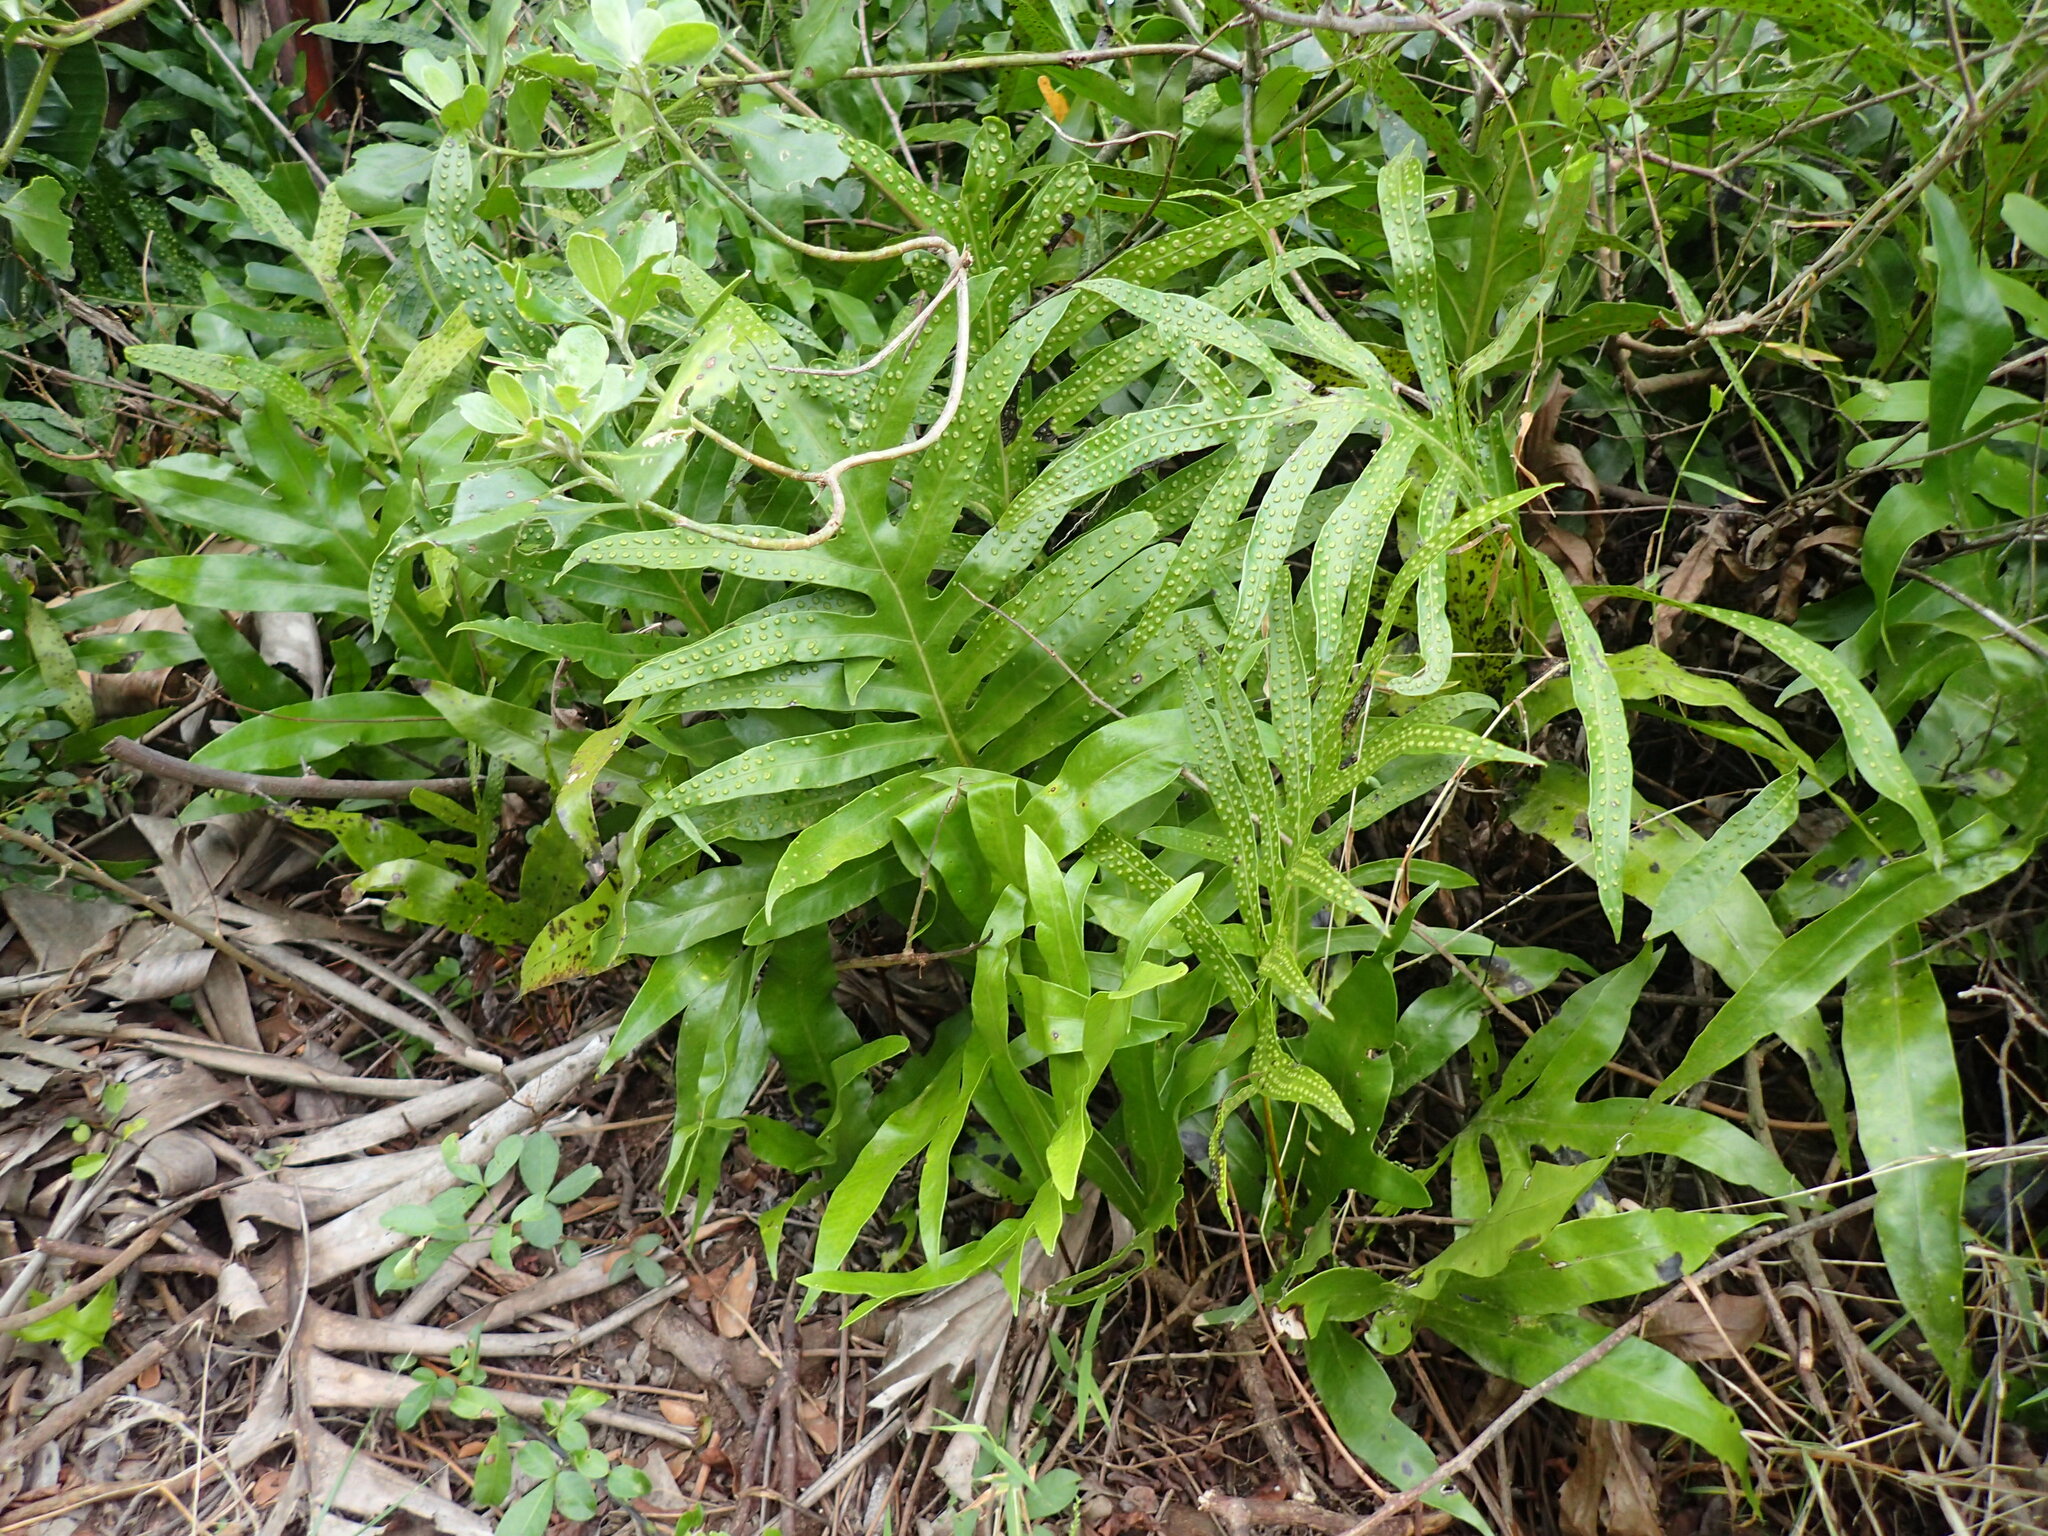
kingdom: Plantae
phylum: Tracheophyta
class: Polypodiopsida
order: Polypodiales
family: Polypodiaceae
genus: Microsorum
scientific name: Microsorum scolopendria
